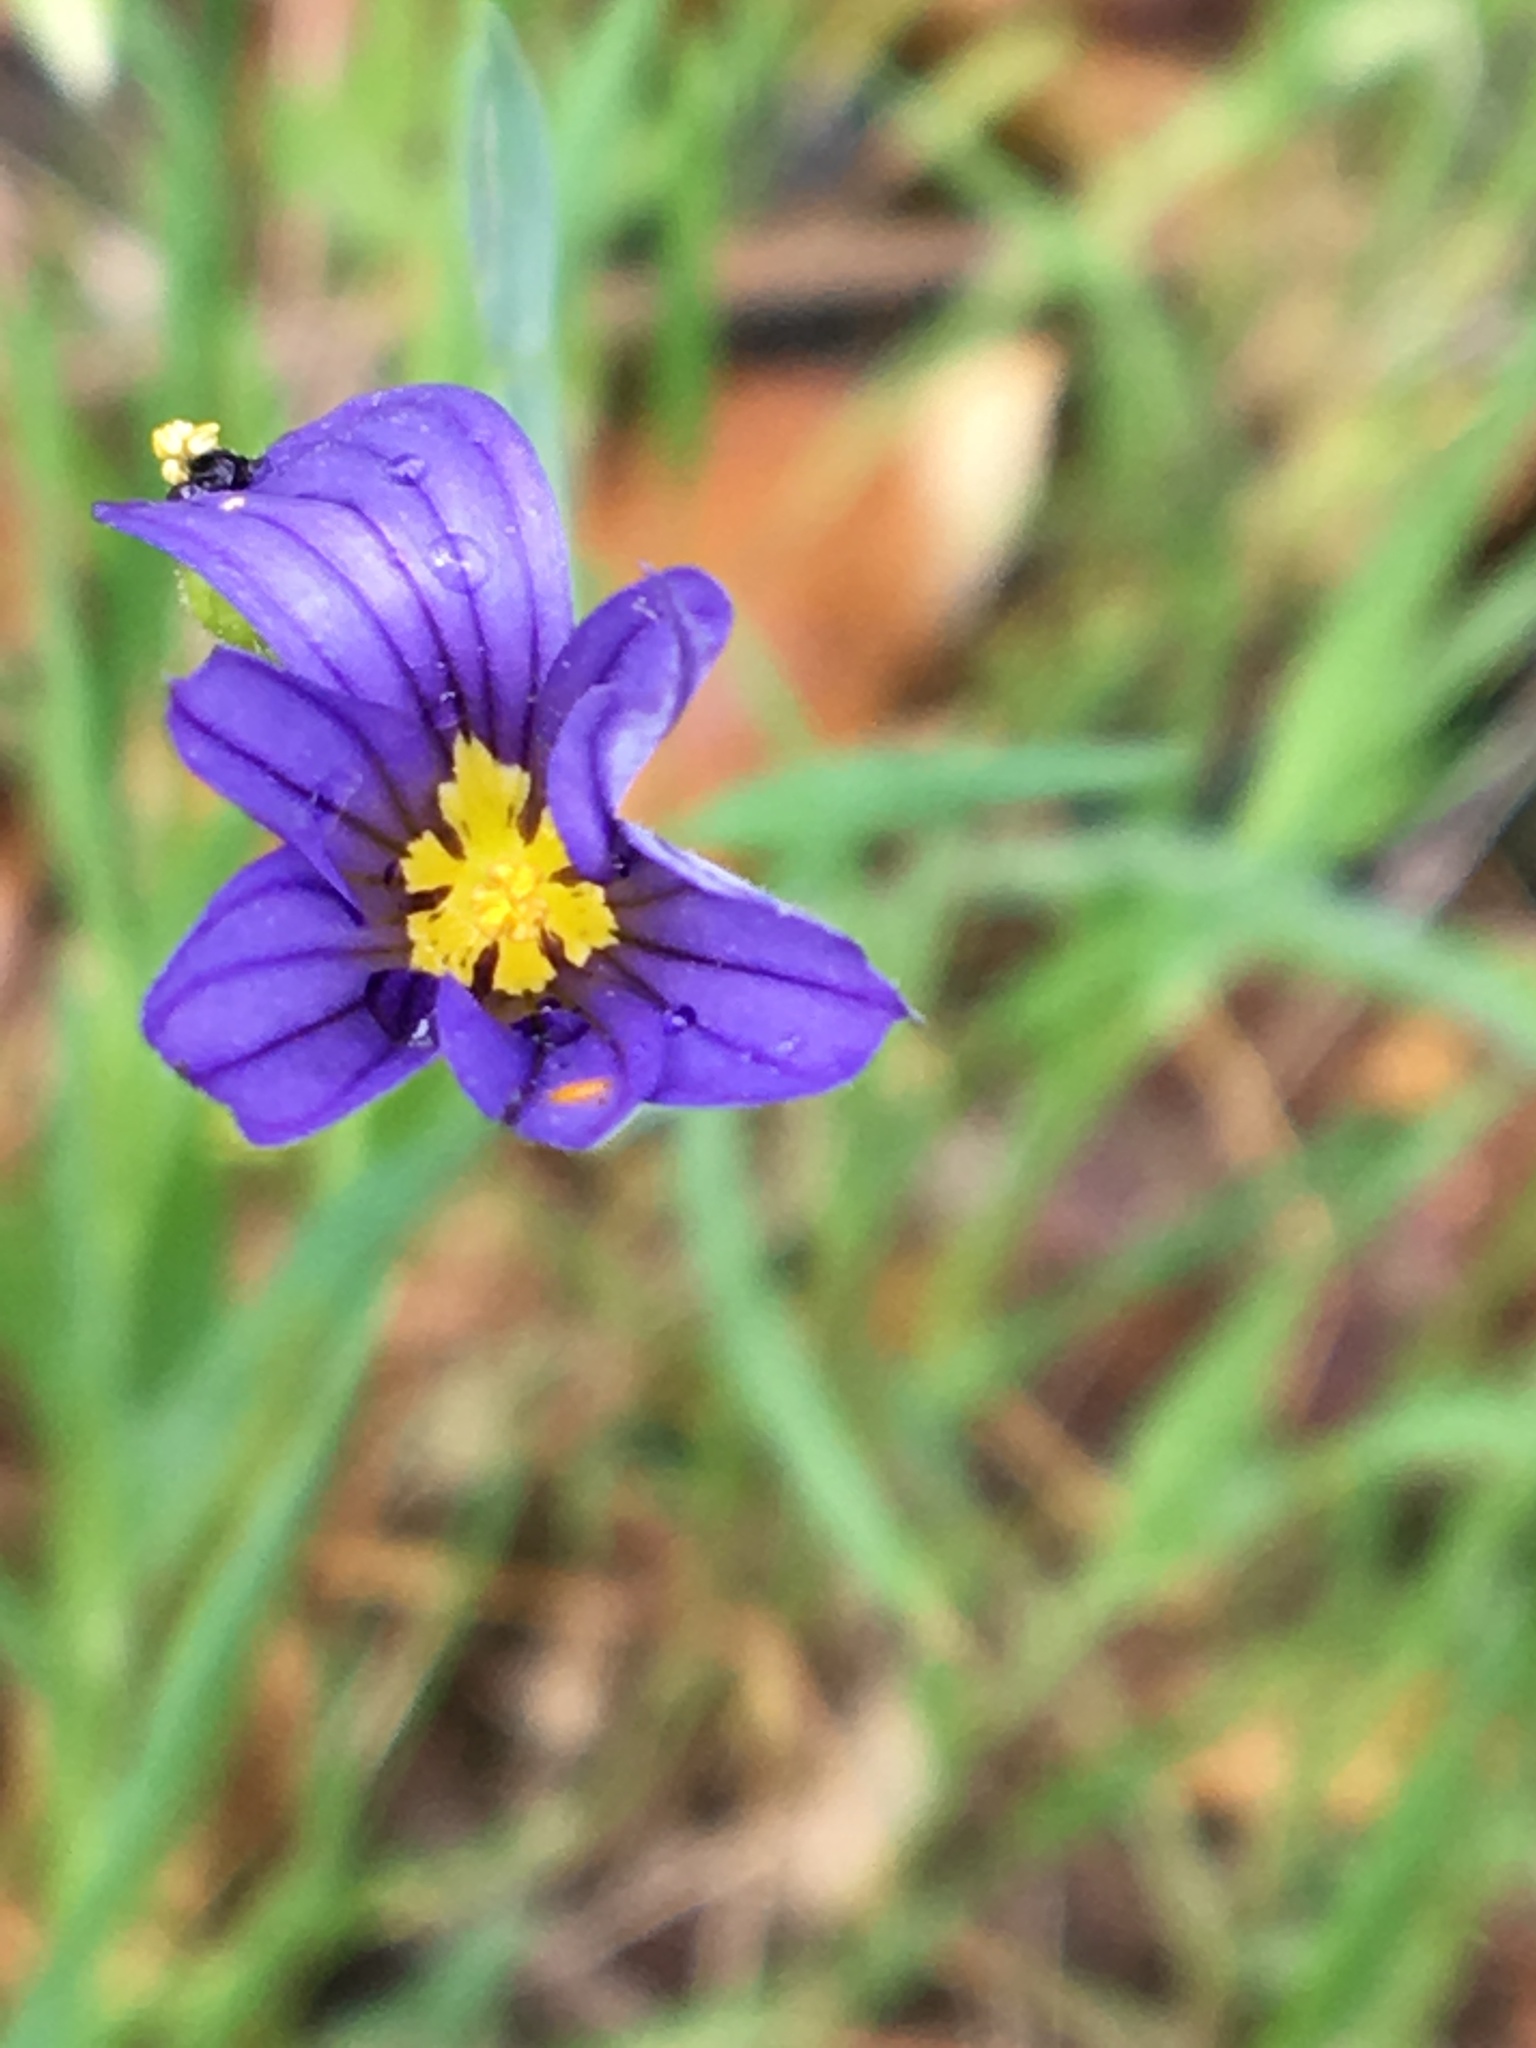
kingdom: Plantae
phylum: Tracheophyta
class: Liliopsida
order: Asparagales
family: Iridaceae
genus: Sisyrinchium
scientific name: Sisyrinchium bellum
